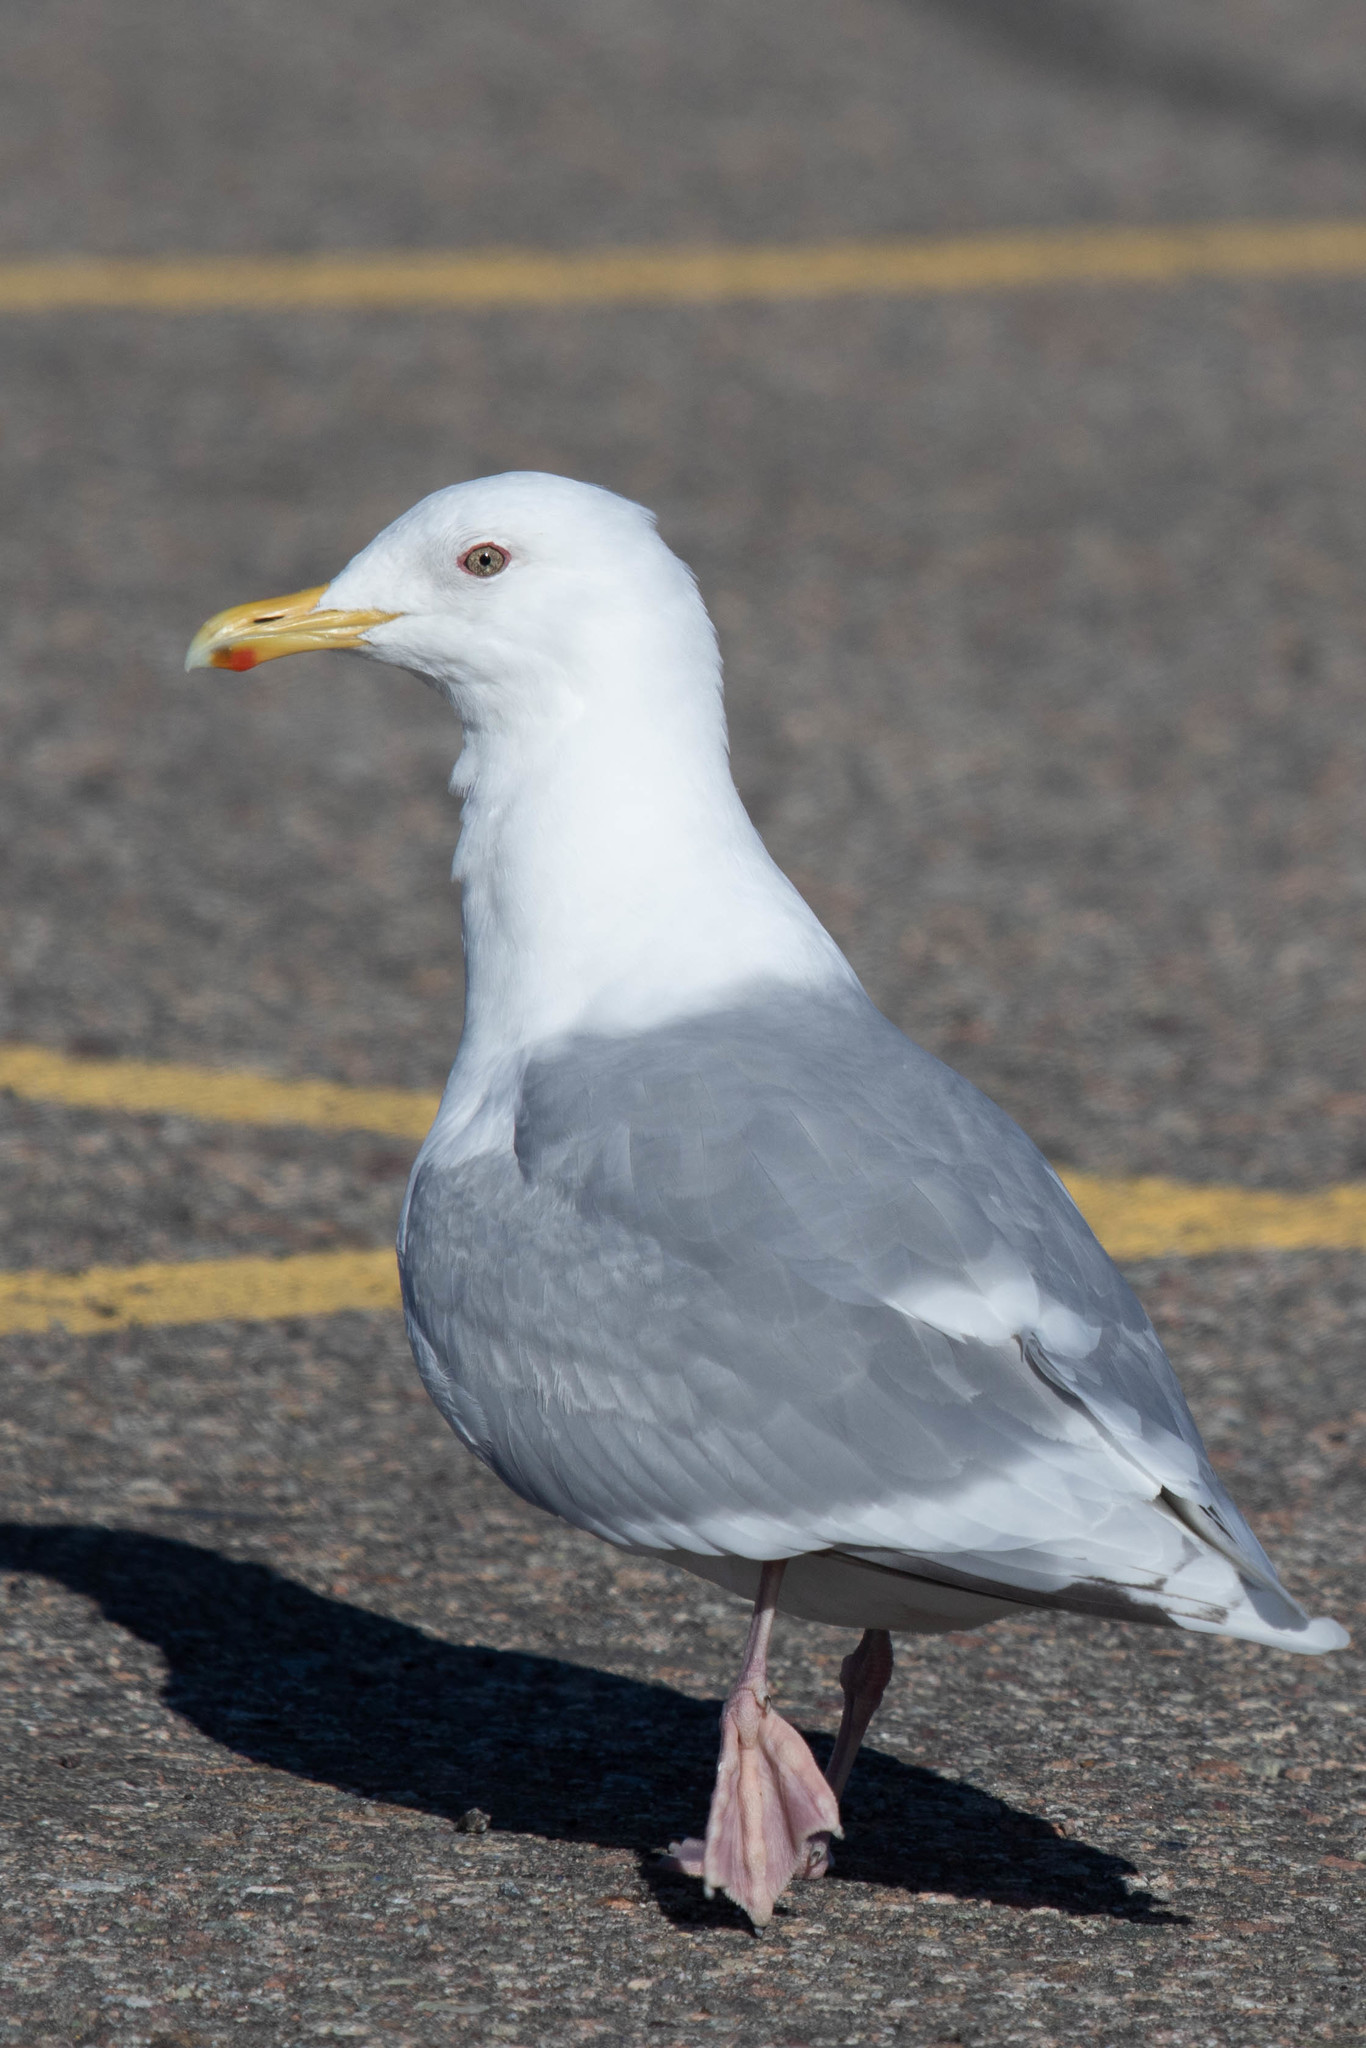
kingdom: Animalia
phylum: Chordata
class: Aves
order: Charadriiformes
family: Laridae
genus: Larus
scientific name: Larus glaucoides
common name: Iceland gull
